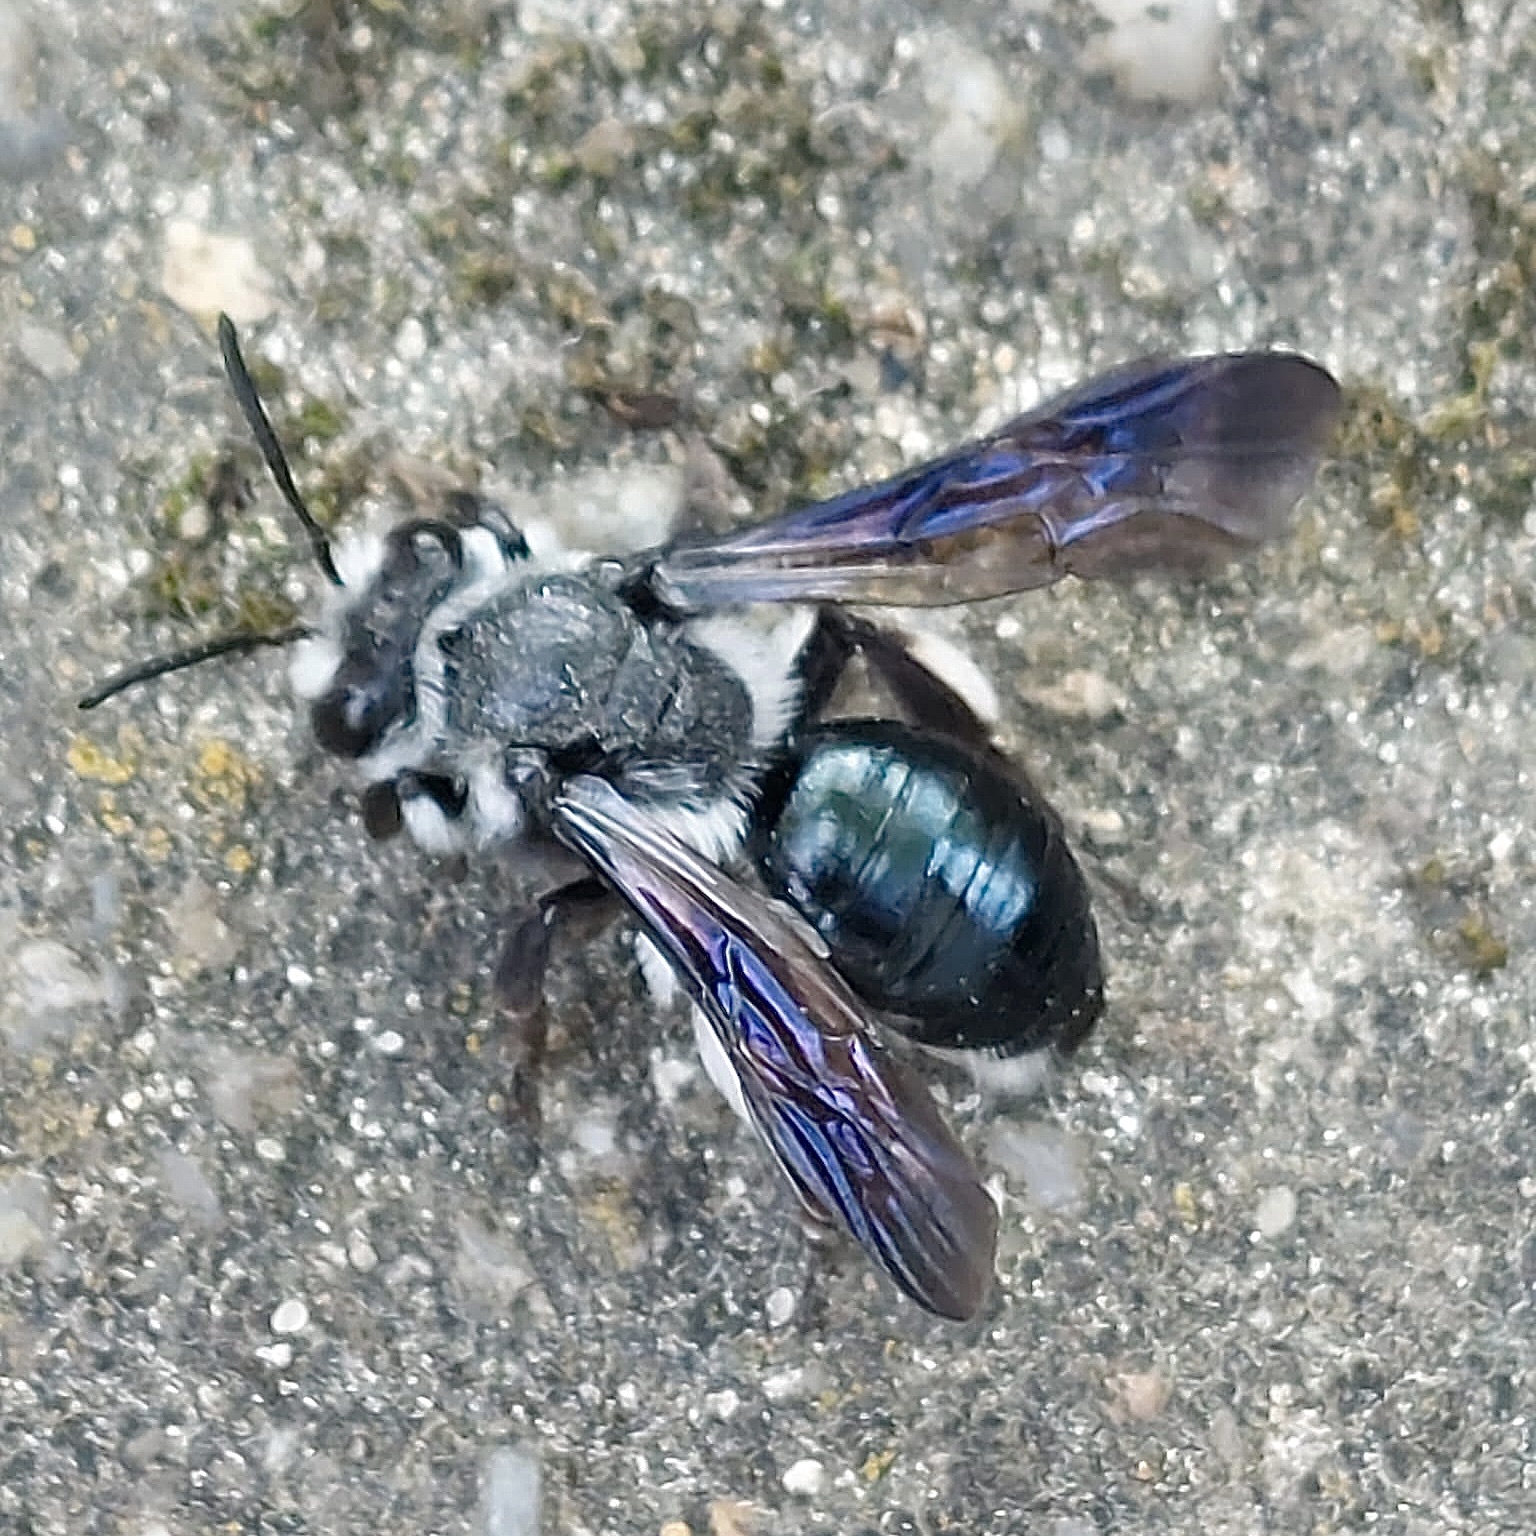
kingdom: Animalia
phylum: Arthropoda
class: Insecta
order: Hymenoptera
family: Andrenidae
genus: Andrena
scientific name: Andrena agilissima
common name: Violet-winged mining bee
